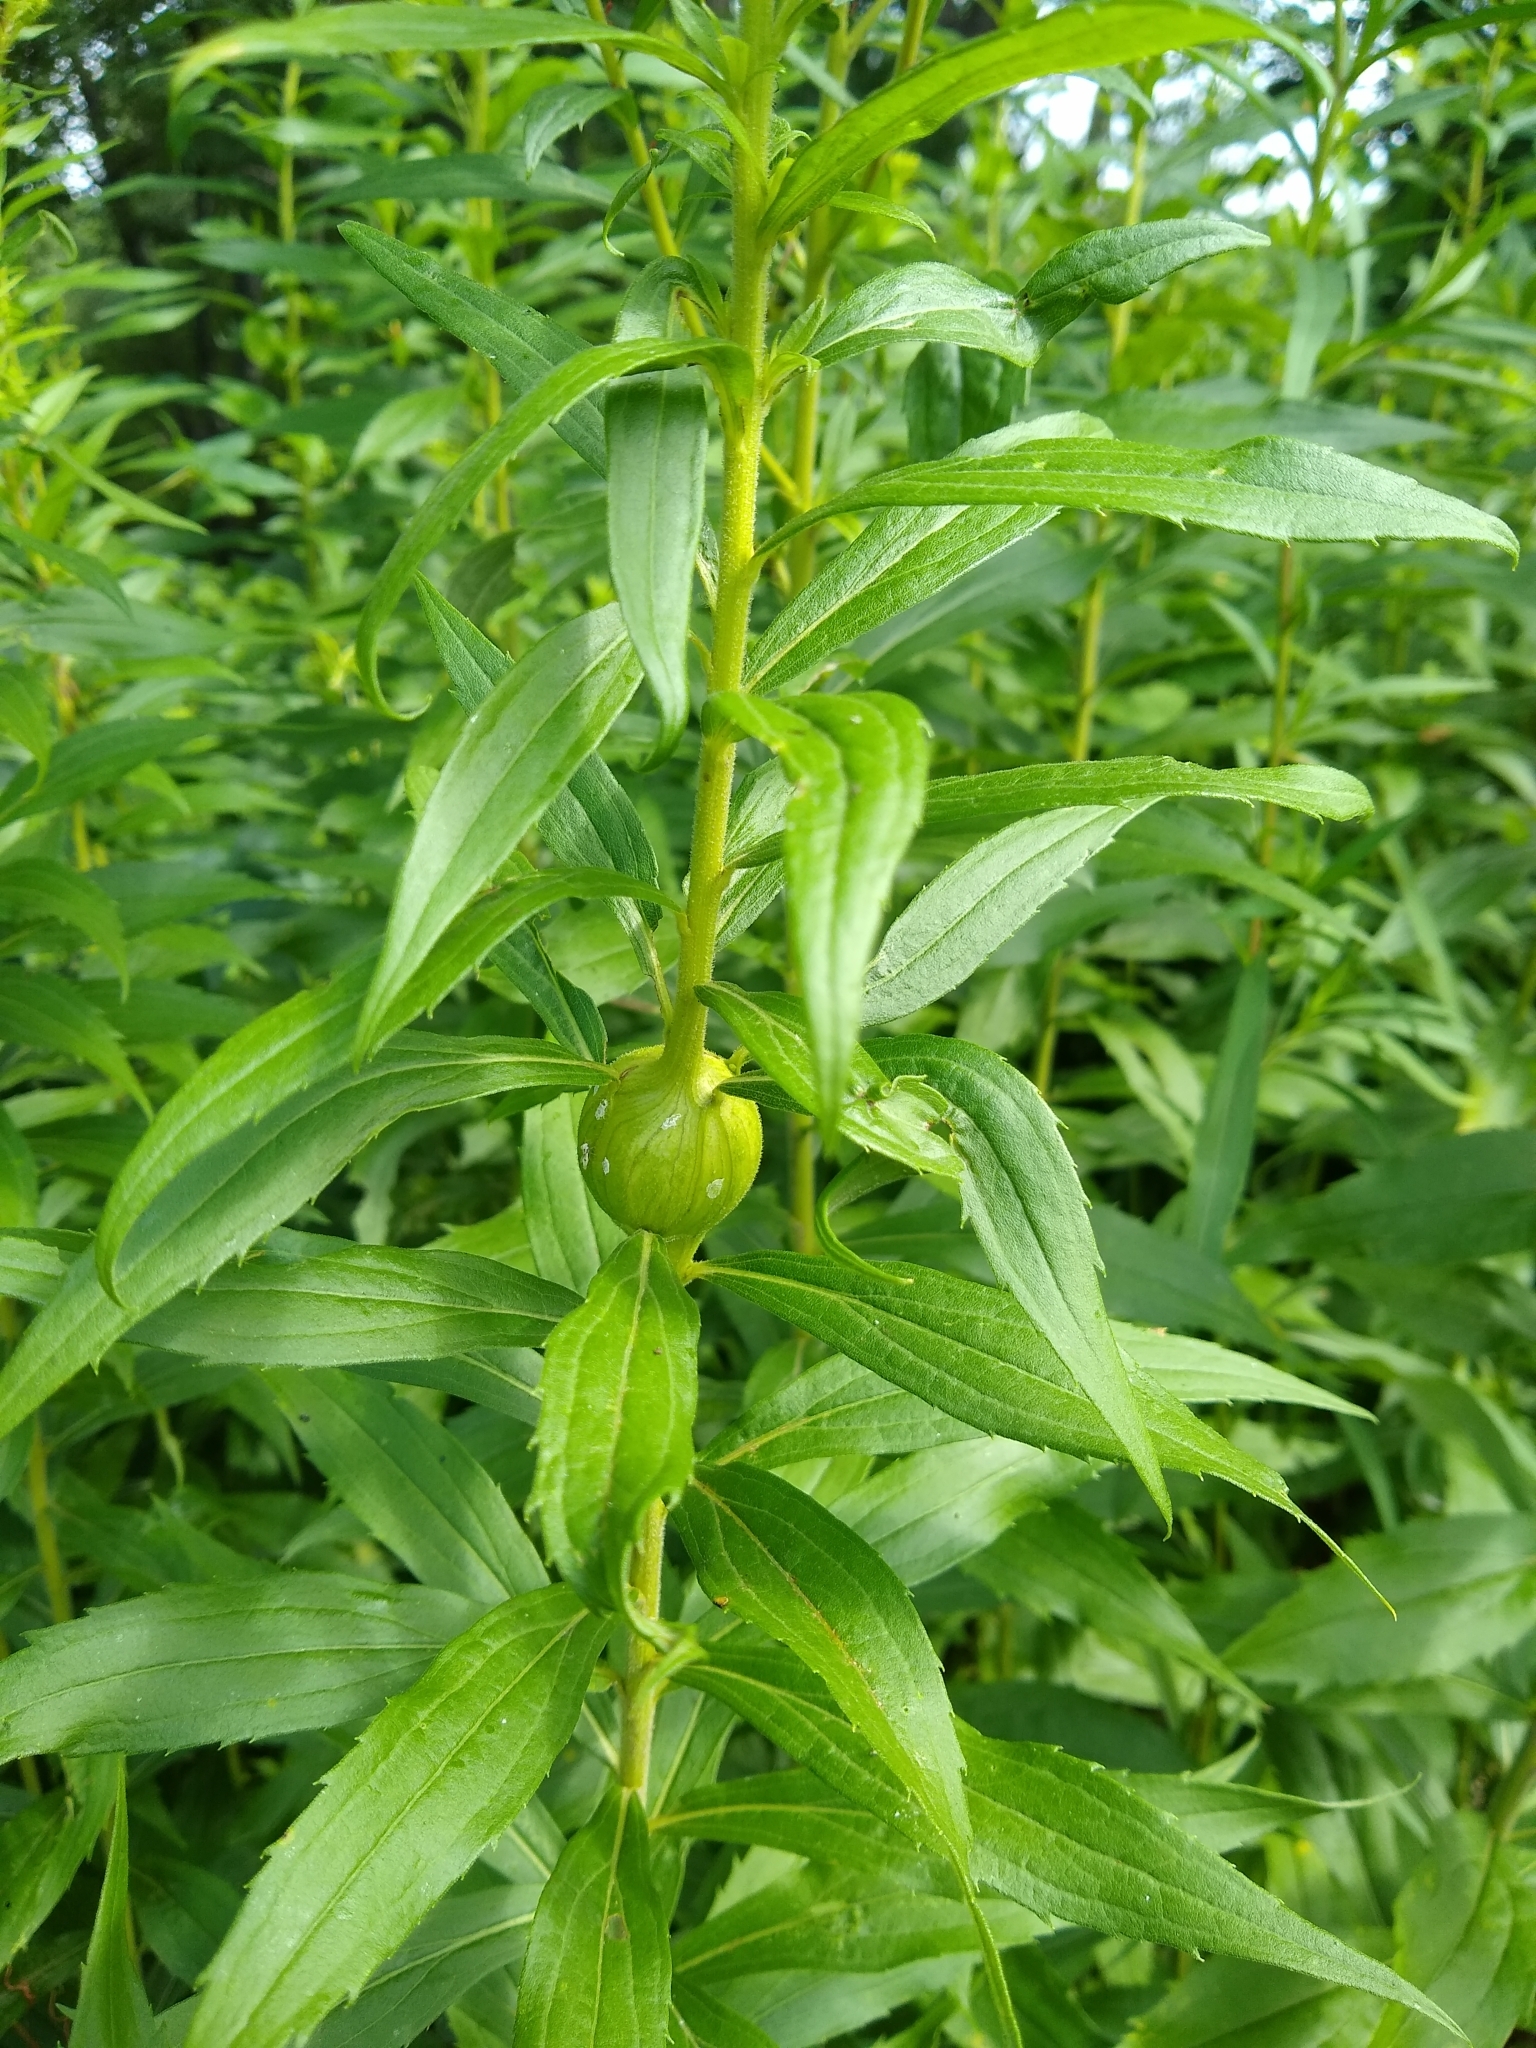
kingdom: Animalia
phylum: Arthropoda
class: Insecta
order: Diptera
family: Tephritidae
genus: Eurosta
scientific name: Eurosta solidaginis
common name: Goldenrod gall fly
